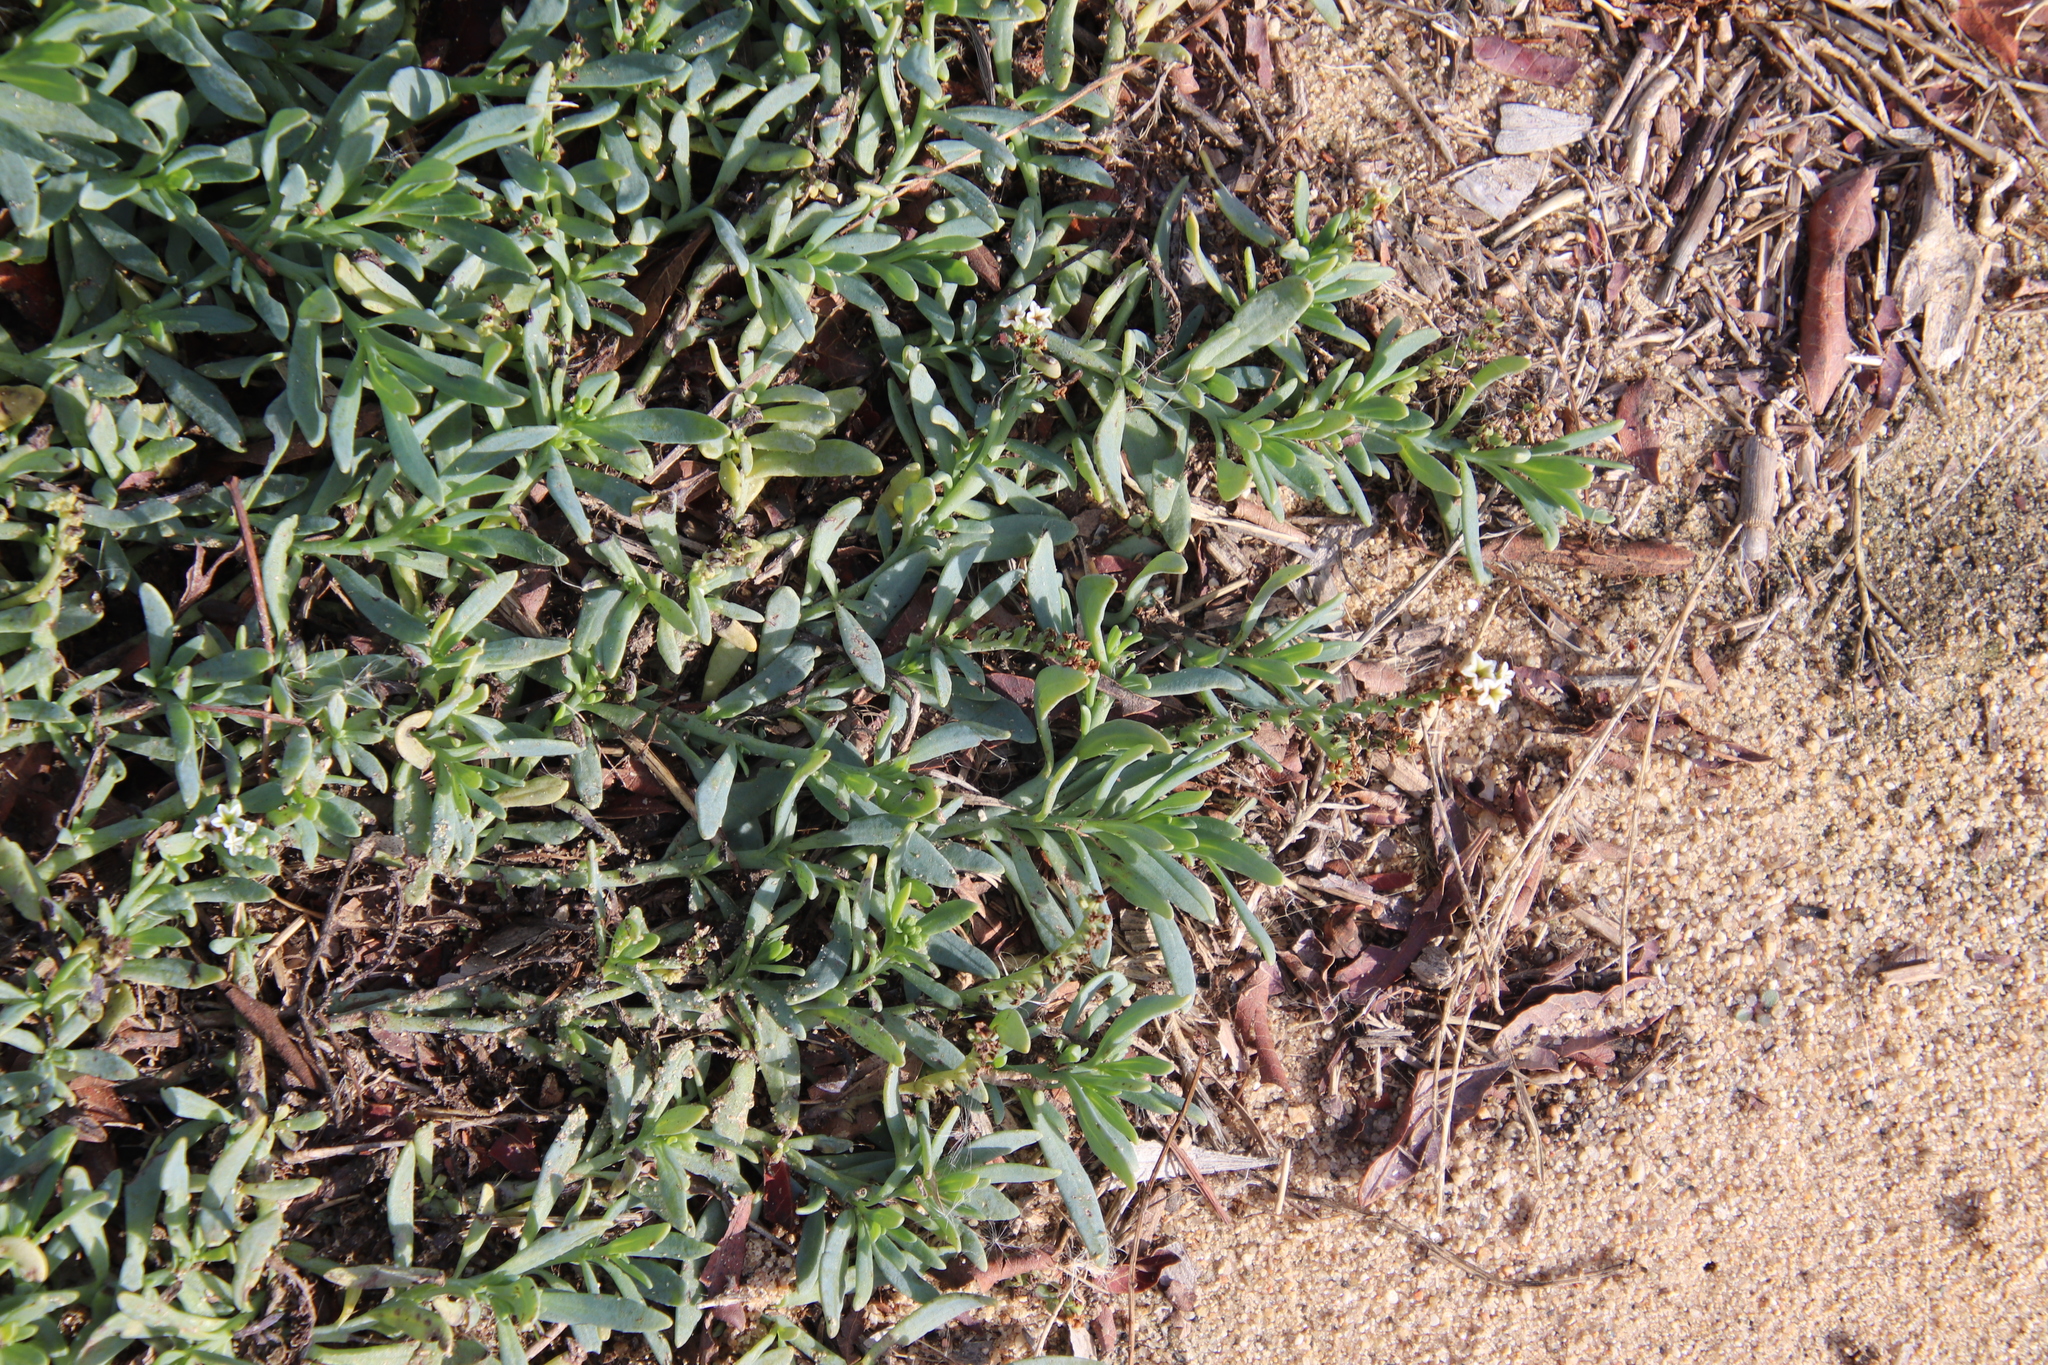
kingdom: Plantae
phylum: Tracheophyta
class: Magnoliopsida
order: Boraginales
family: Heliotropiaceae
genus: Heliotropium
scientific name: Heliotropium curassavicum
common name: Seaside heliotrope
